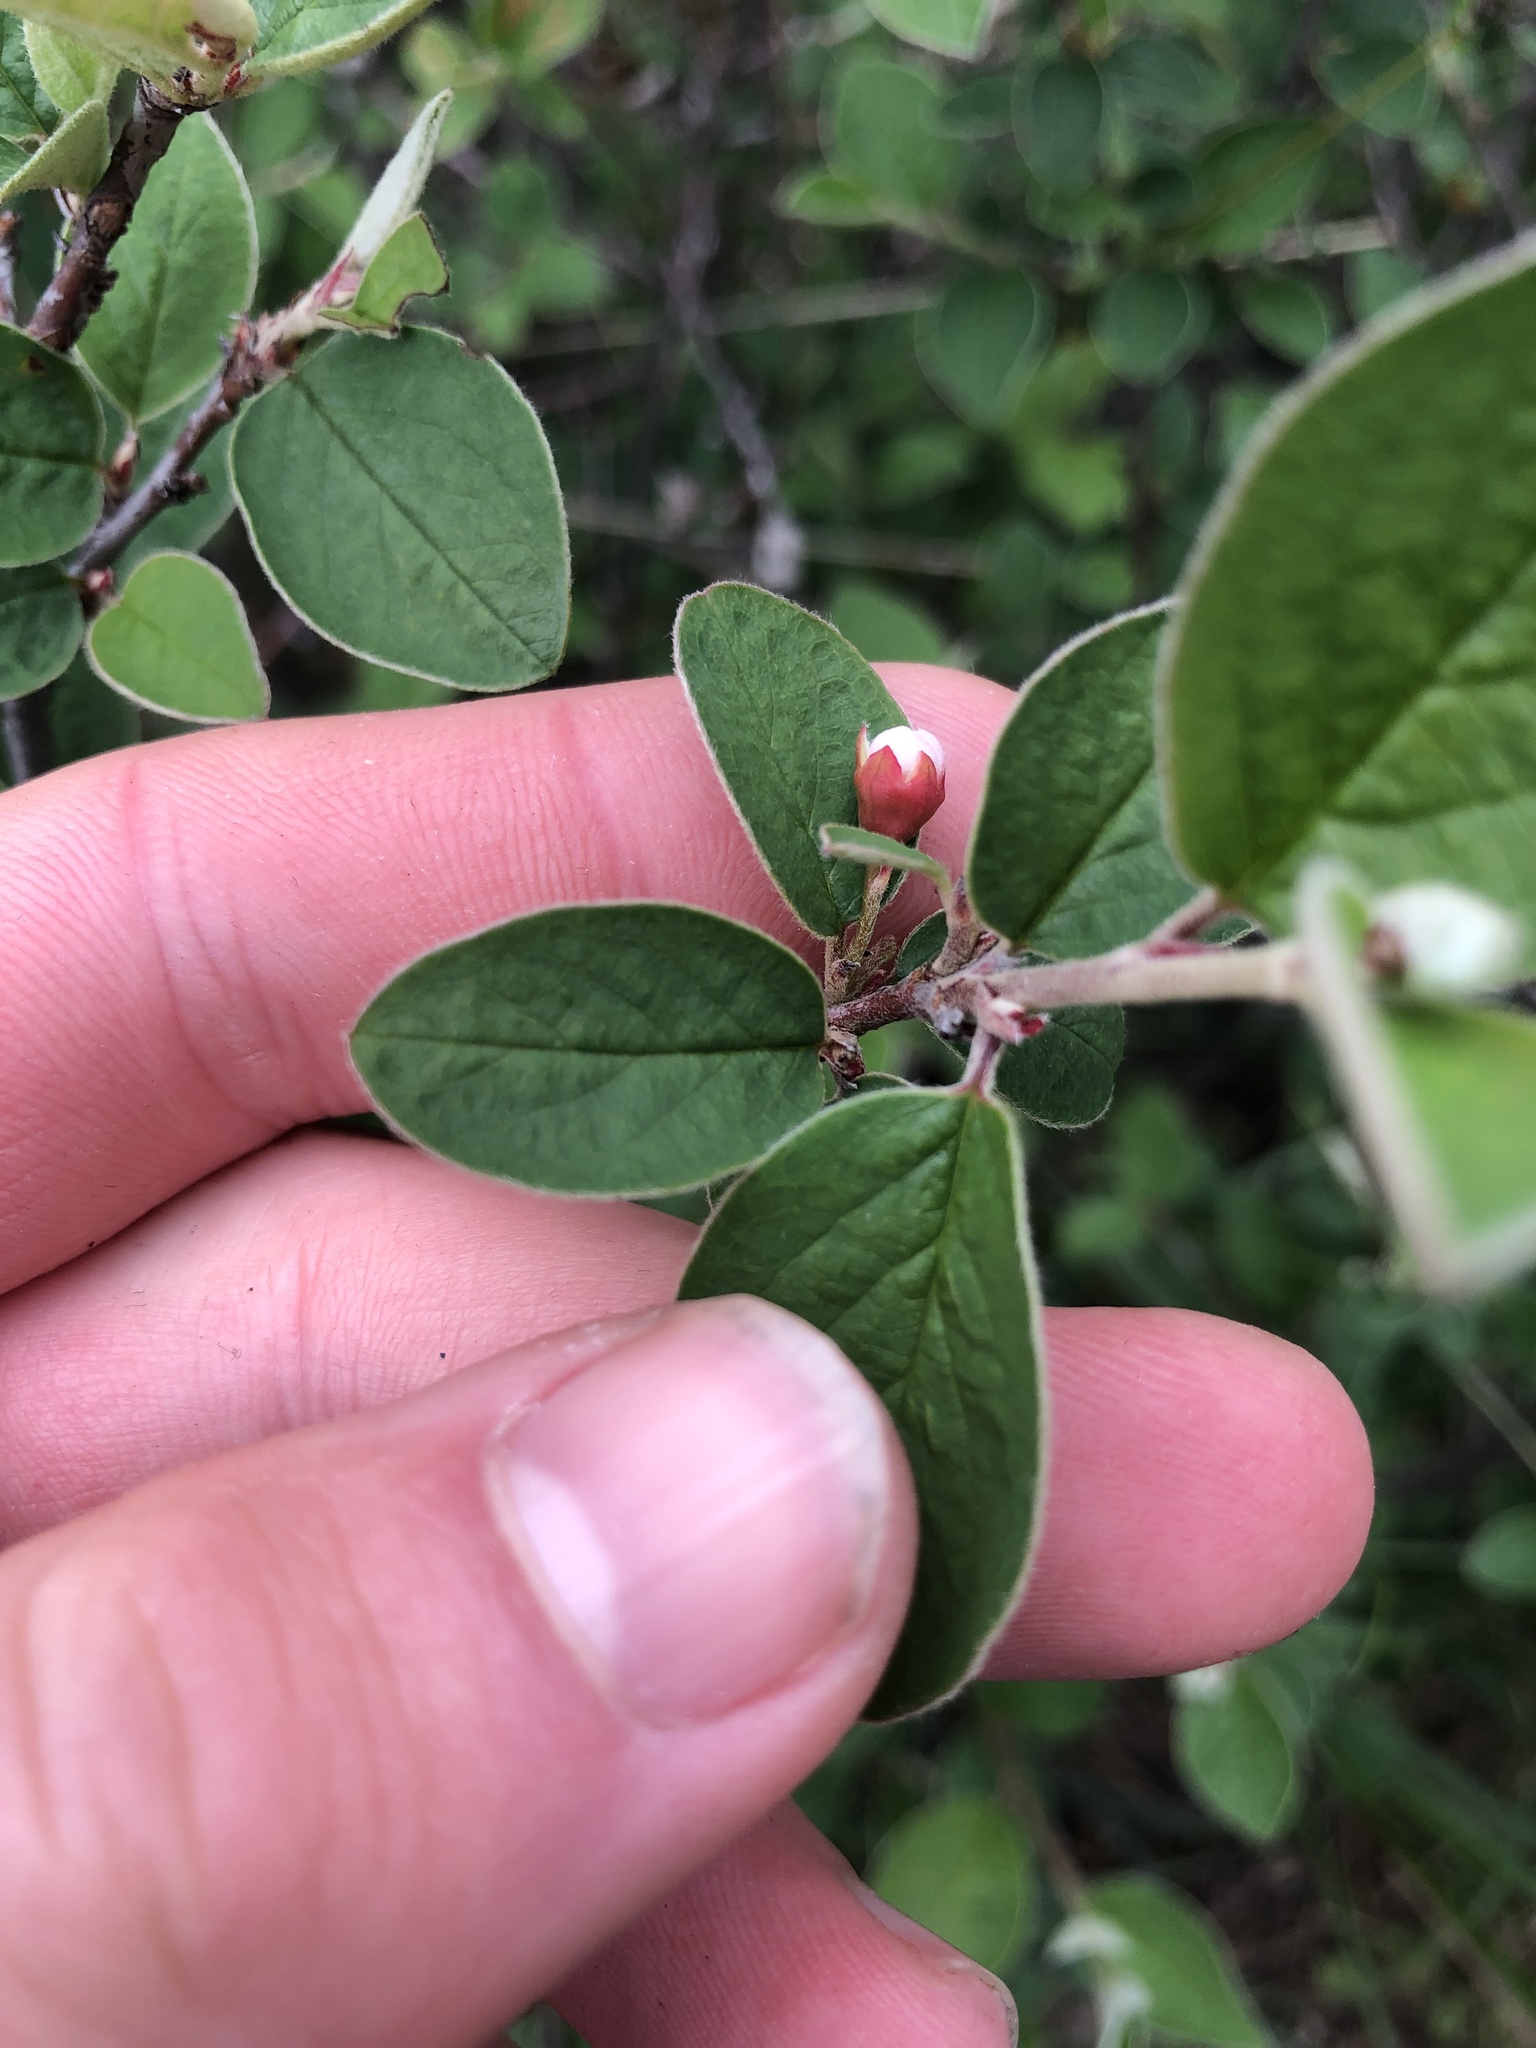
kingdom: Plantae
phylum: Tracheophyta
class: Magnoliopsida
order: Rosales
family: Rosaceae
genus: Cotoneaster
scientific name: Cotoneaster integerrimus
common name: Wild cotoneaster
